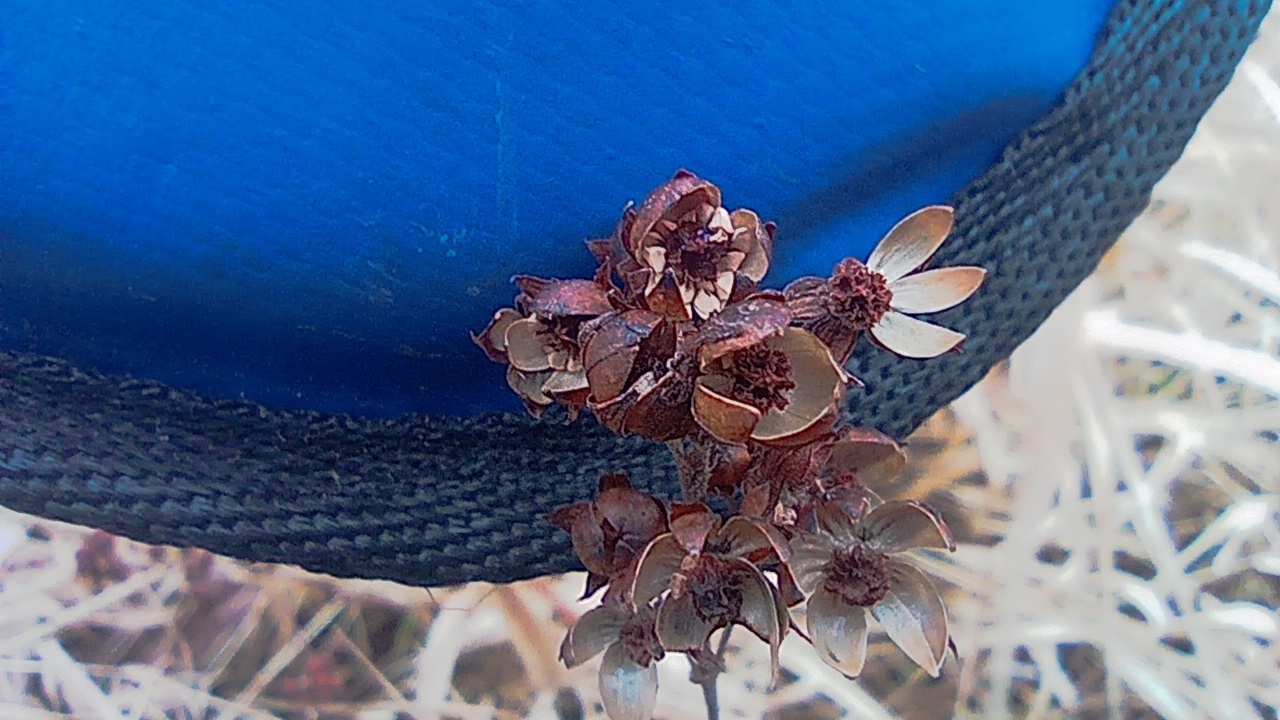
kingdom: Plantae
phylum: Tracheophyta
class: Magnoliopsida
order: Ericales
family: Primulaceae
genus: Lysimachia
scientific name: Lysimachia vulgaris
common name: Yellow loosestrife
